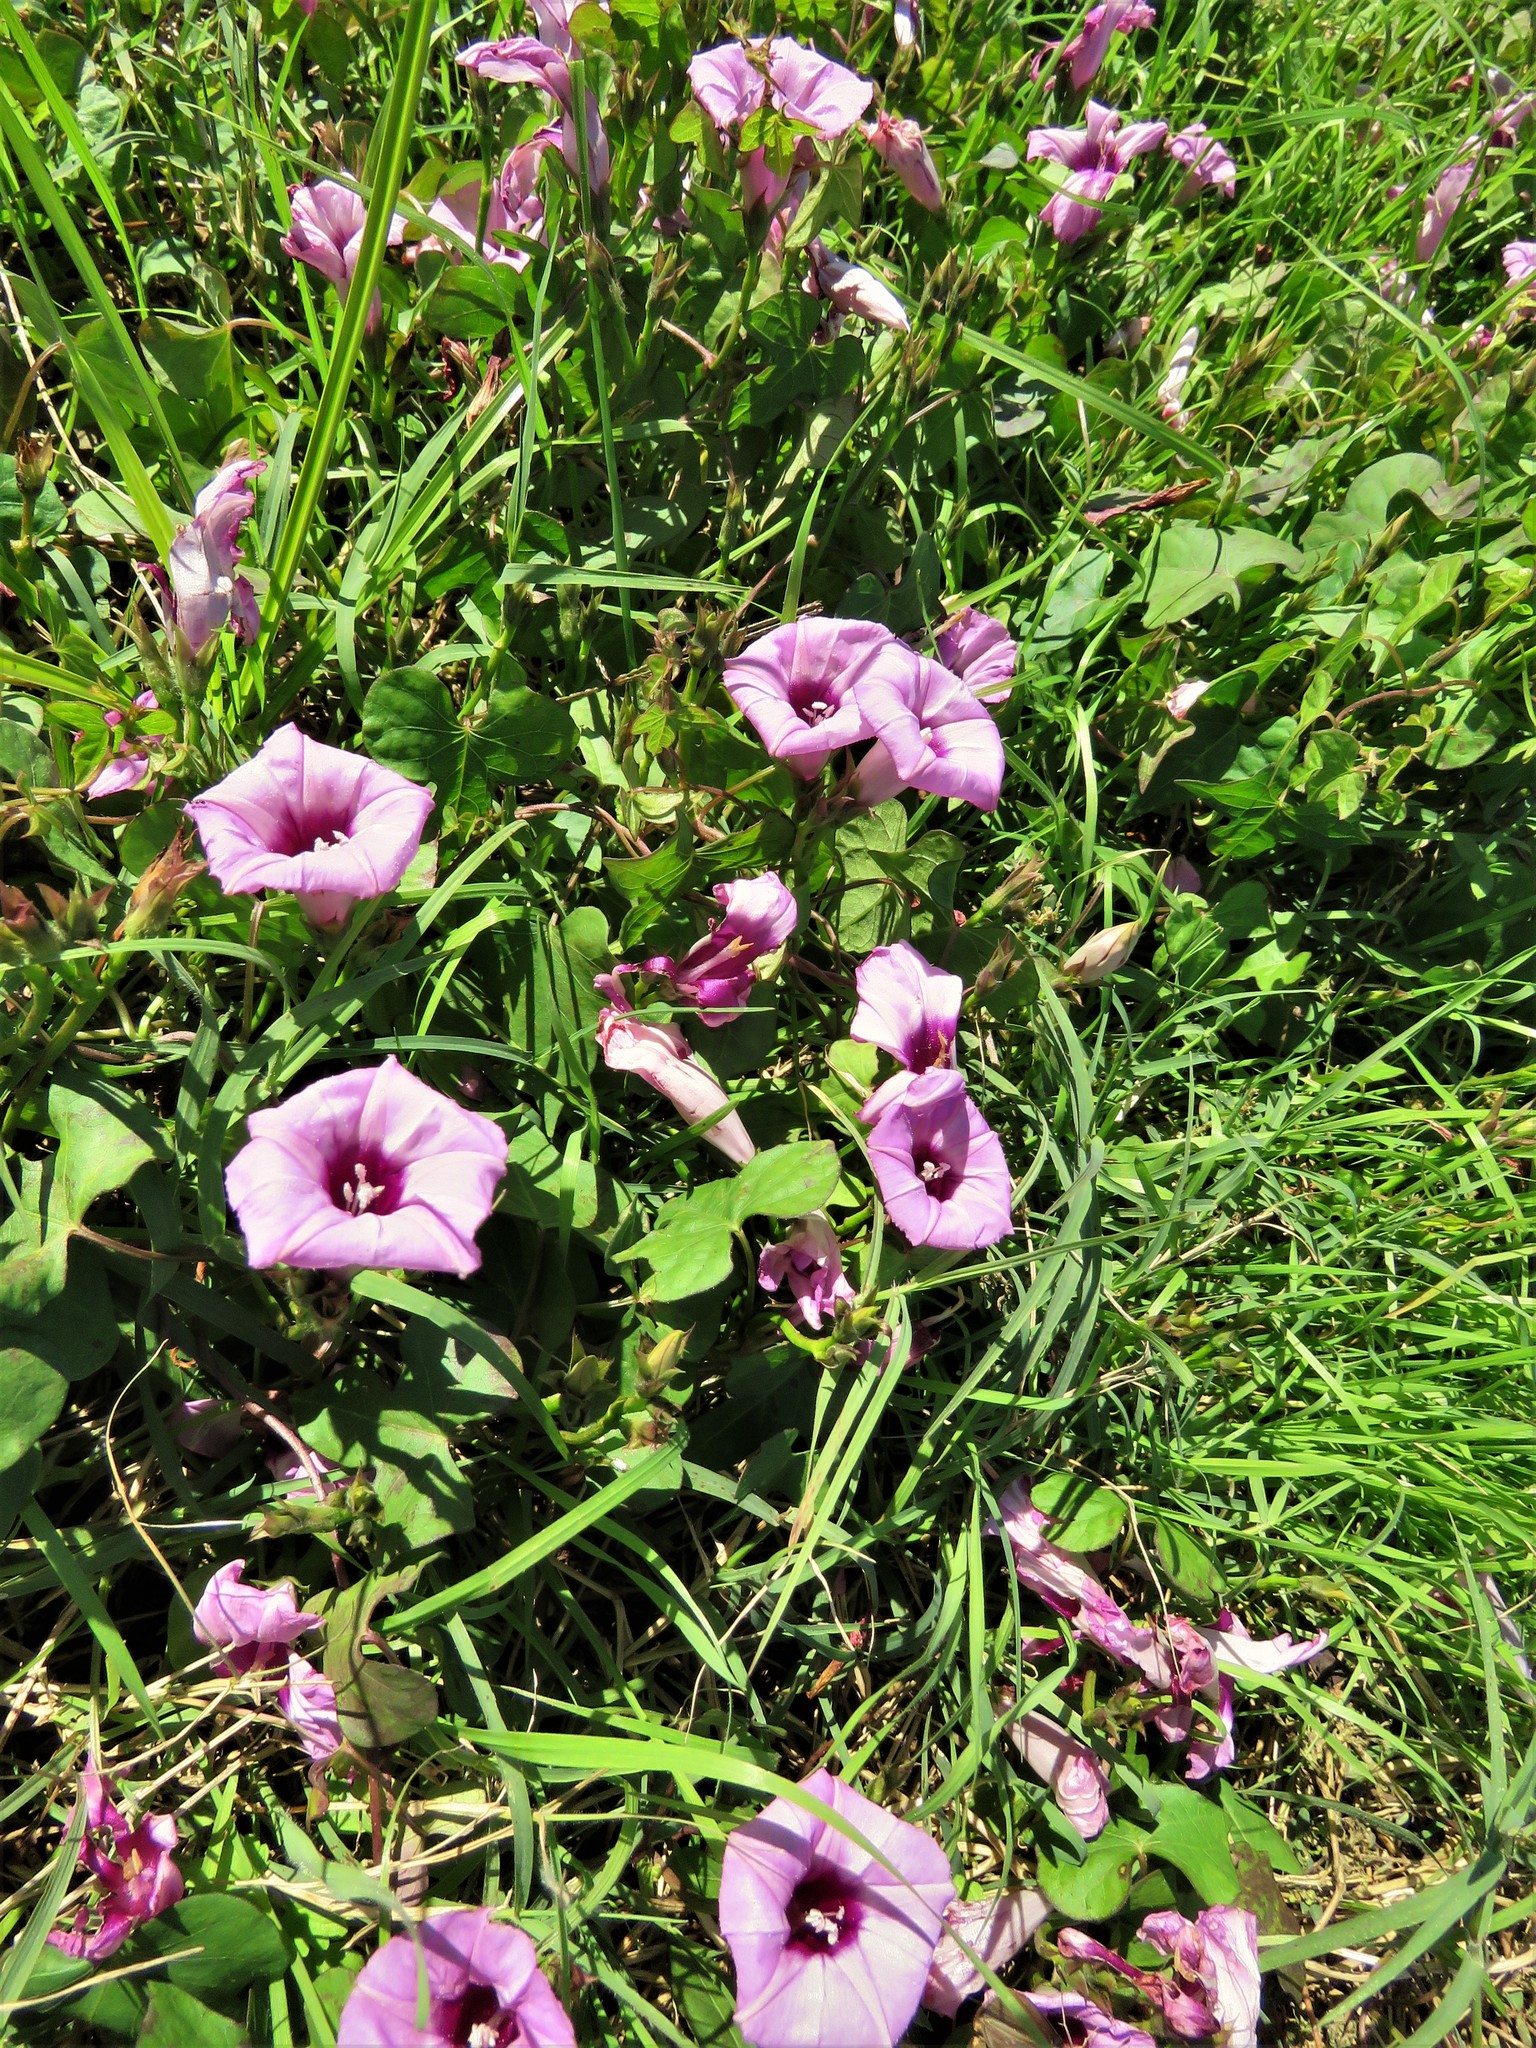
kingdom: Plantae
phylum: Tracheophyta
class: Magnoliopsida
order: Solanales
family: Convolvulaceae
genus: Ipomoea
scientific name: Ipomoea cordatotriloba
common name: Cotton morning glory
